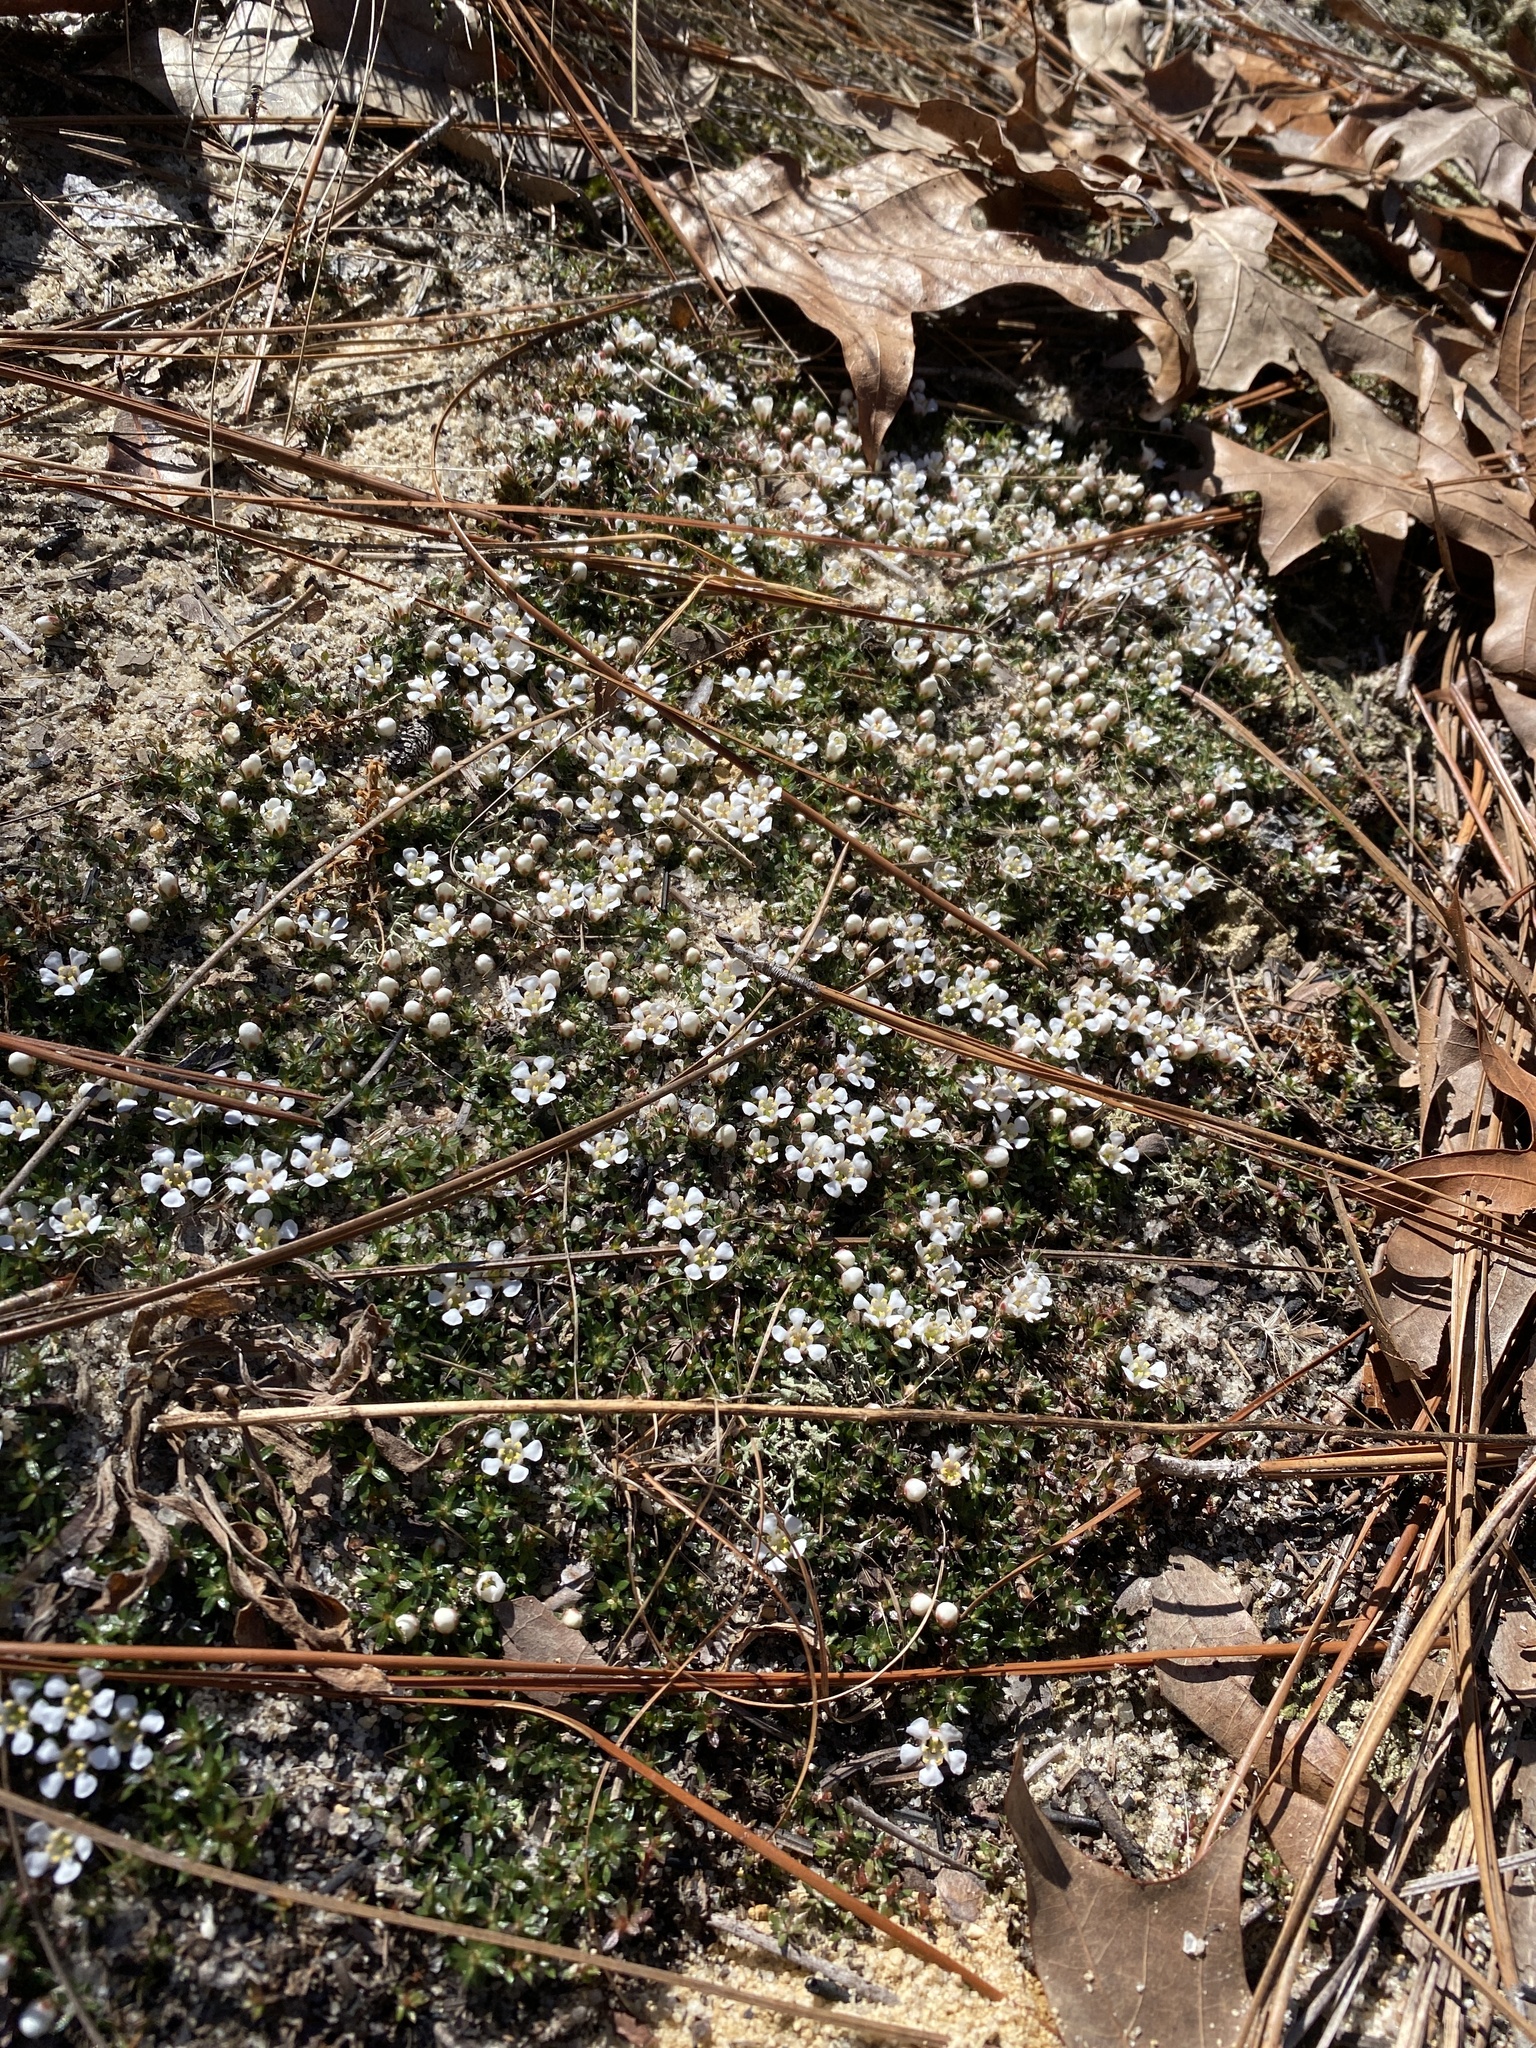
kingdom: Plantae
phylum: Tracheophyta
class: Magnoliopsida
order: Ericales
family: Diapensiaceae
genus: Pyxidanthera
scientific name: Pyxidanthera brevifolia
